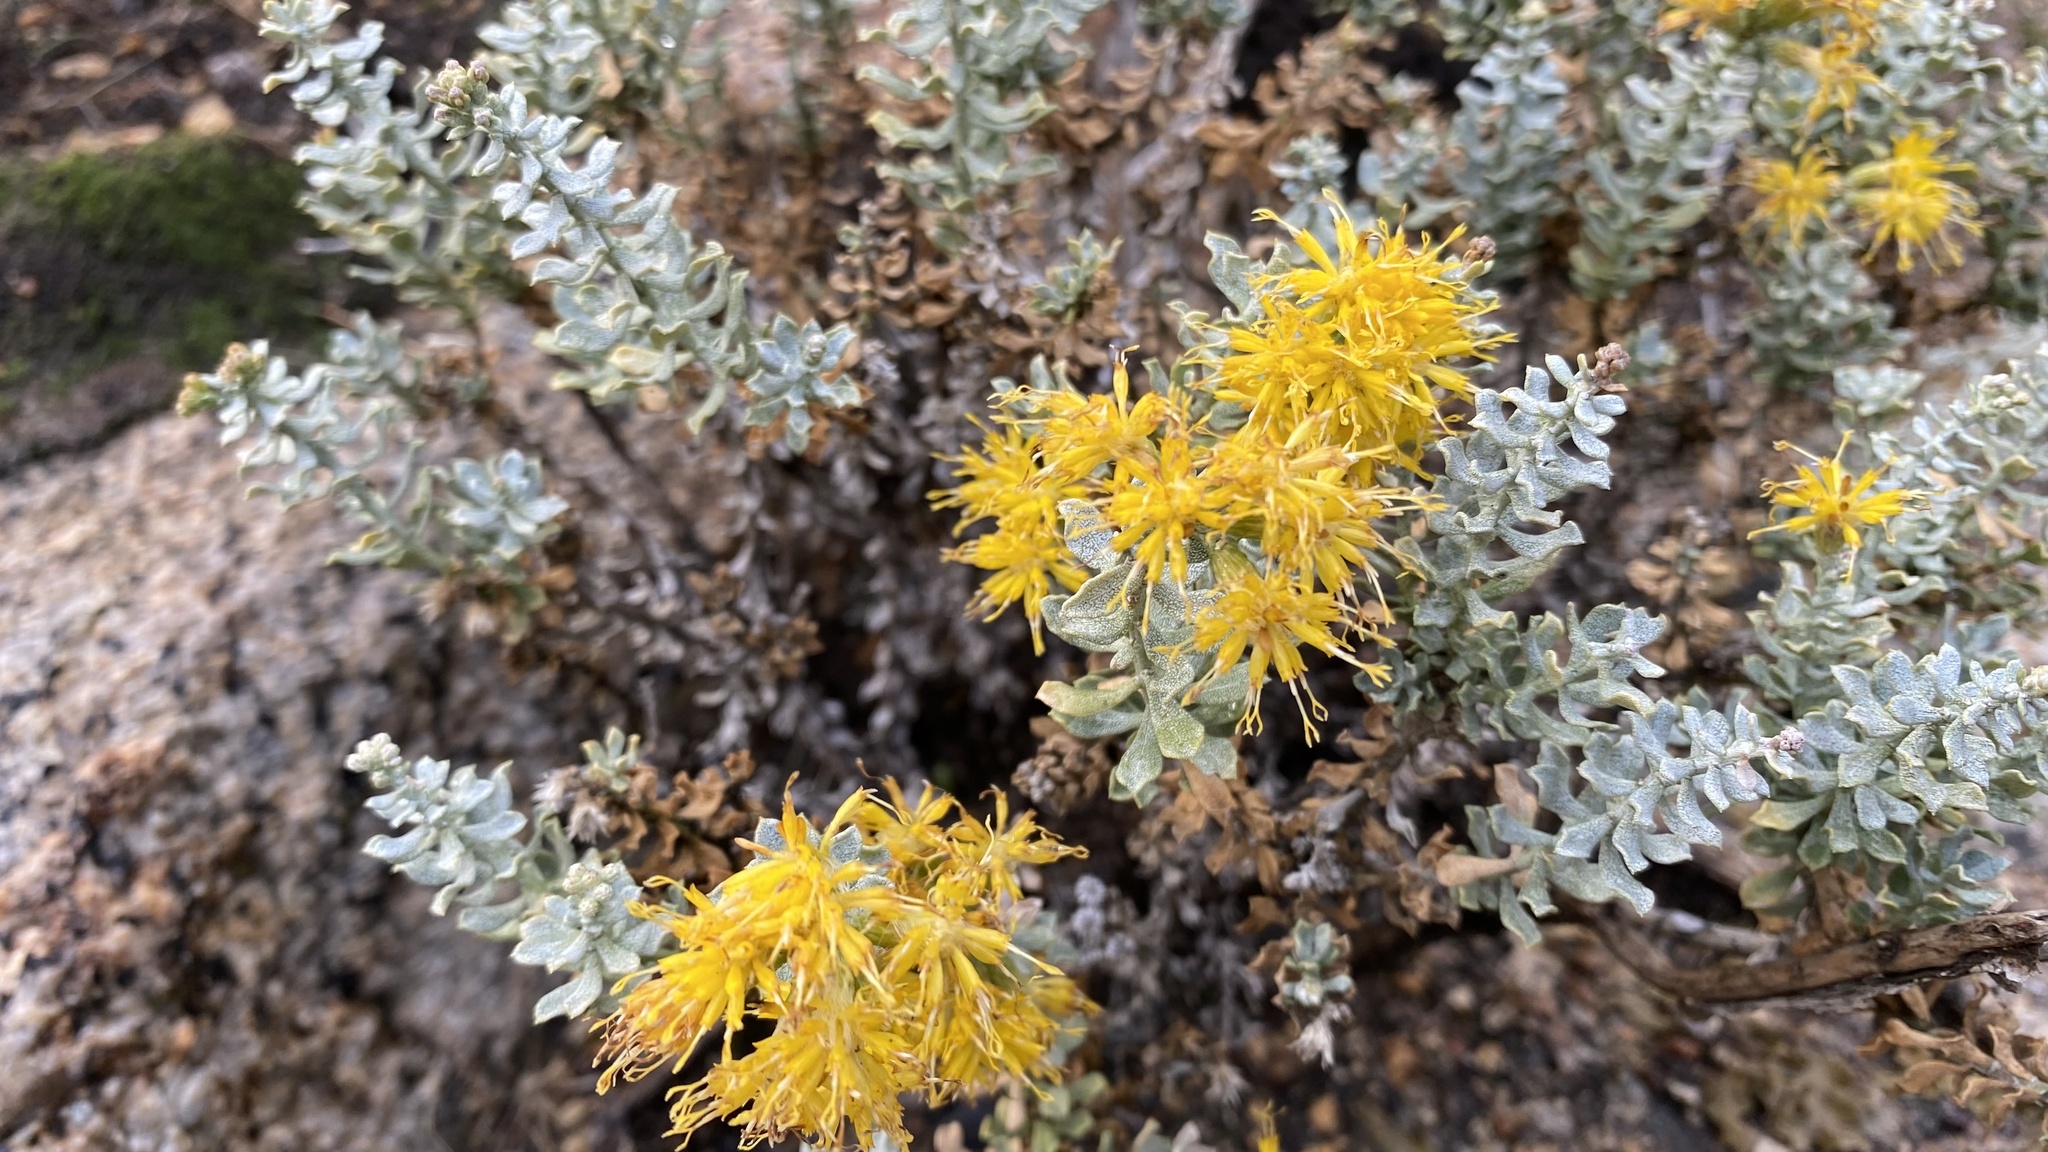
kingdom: Plantae
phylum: Tracheophyta
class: Magnoliopsida
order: Asterales
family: Asteraceae
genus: Ericameria
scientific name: Ericameria cuneata
